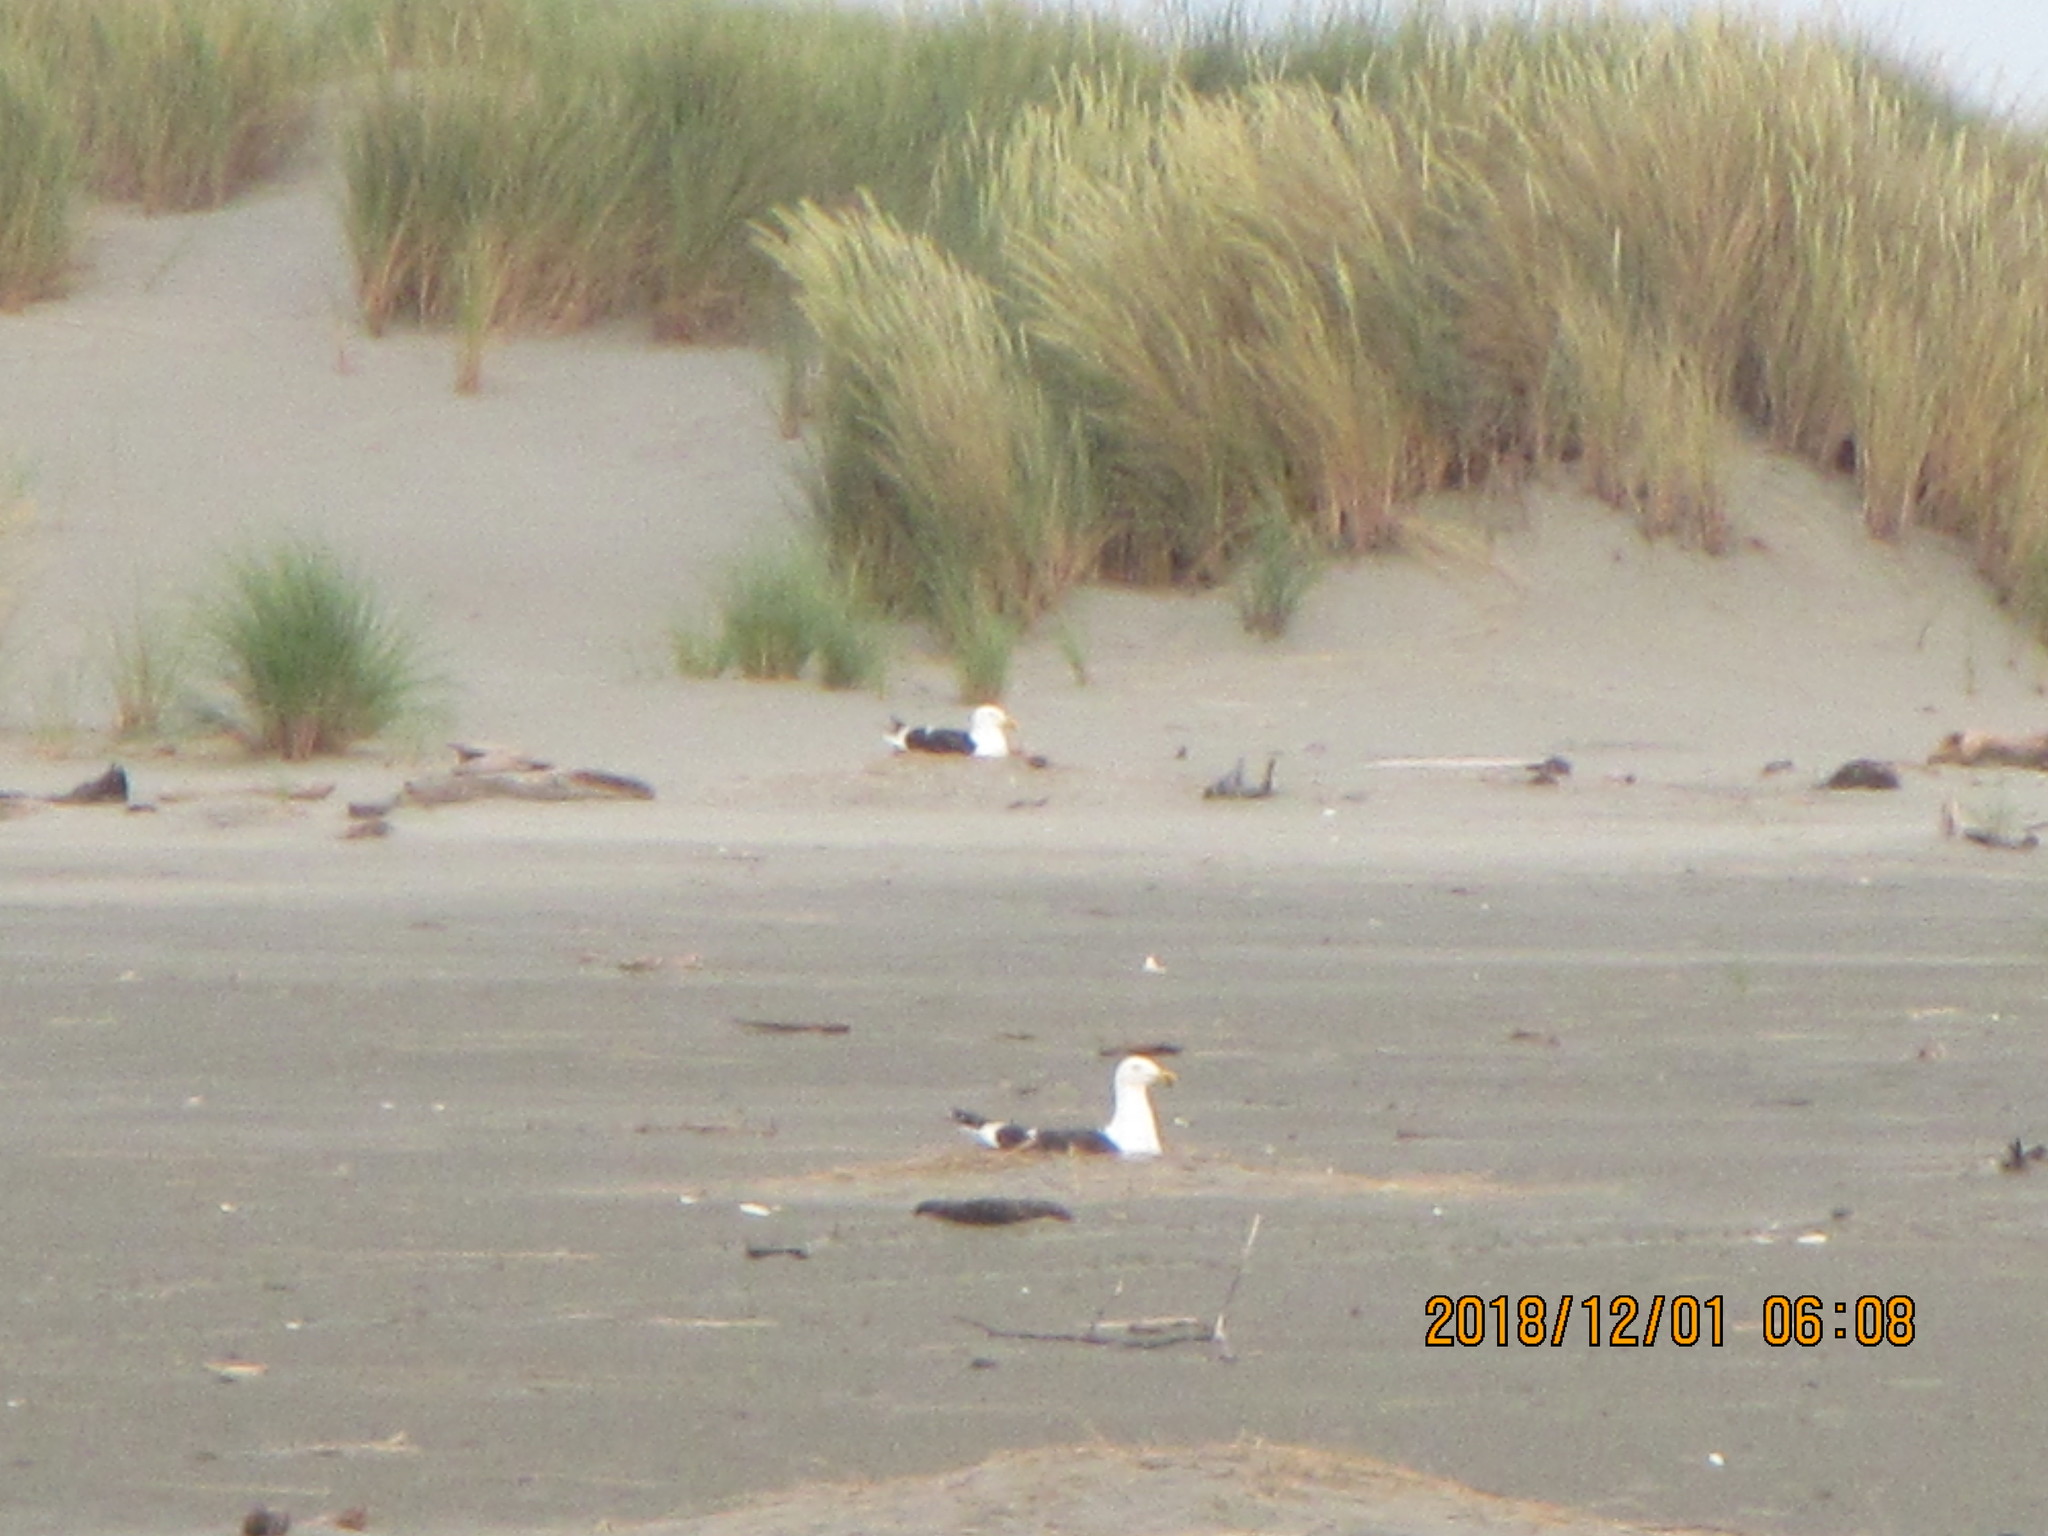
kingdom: Animalia
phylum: Chordata
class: Aves
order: Charadriiformes
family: Laridae
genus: Larus
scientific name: Larus dominicanus
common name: Kelp gull
